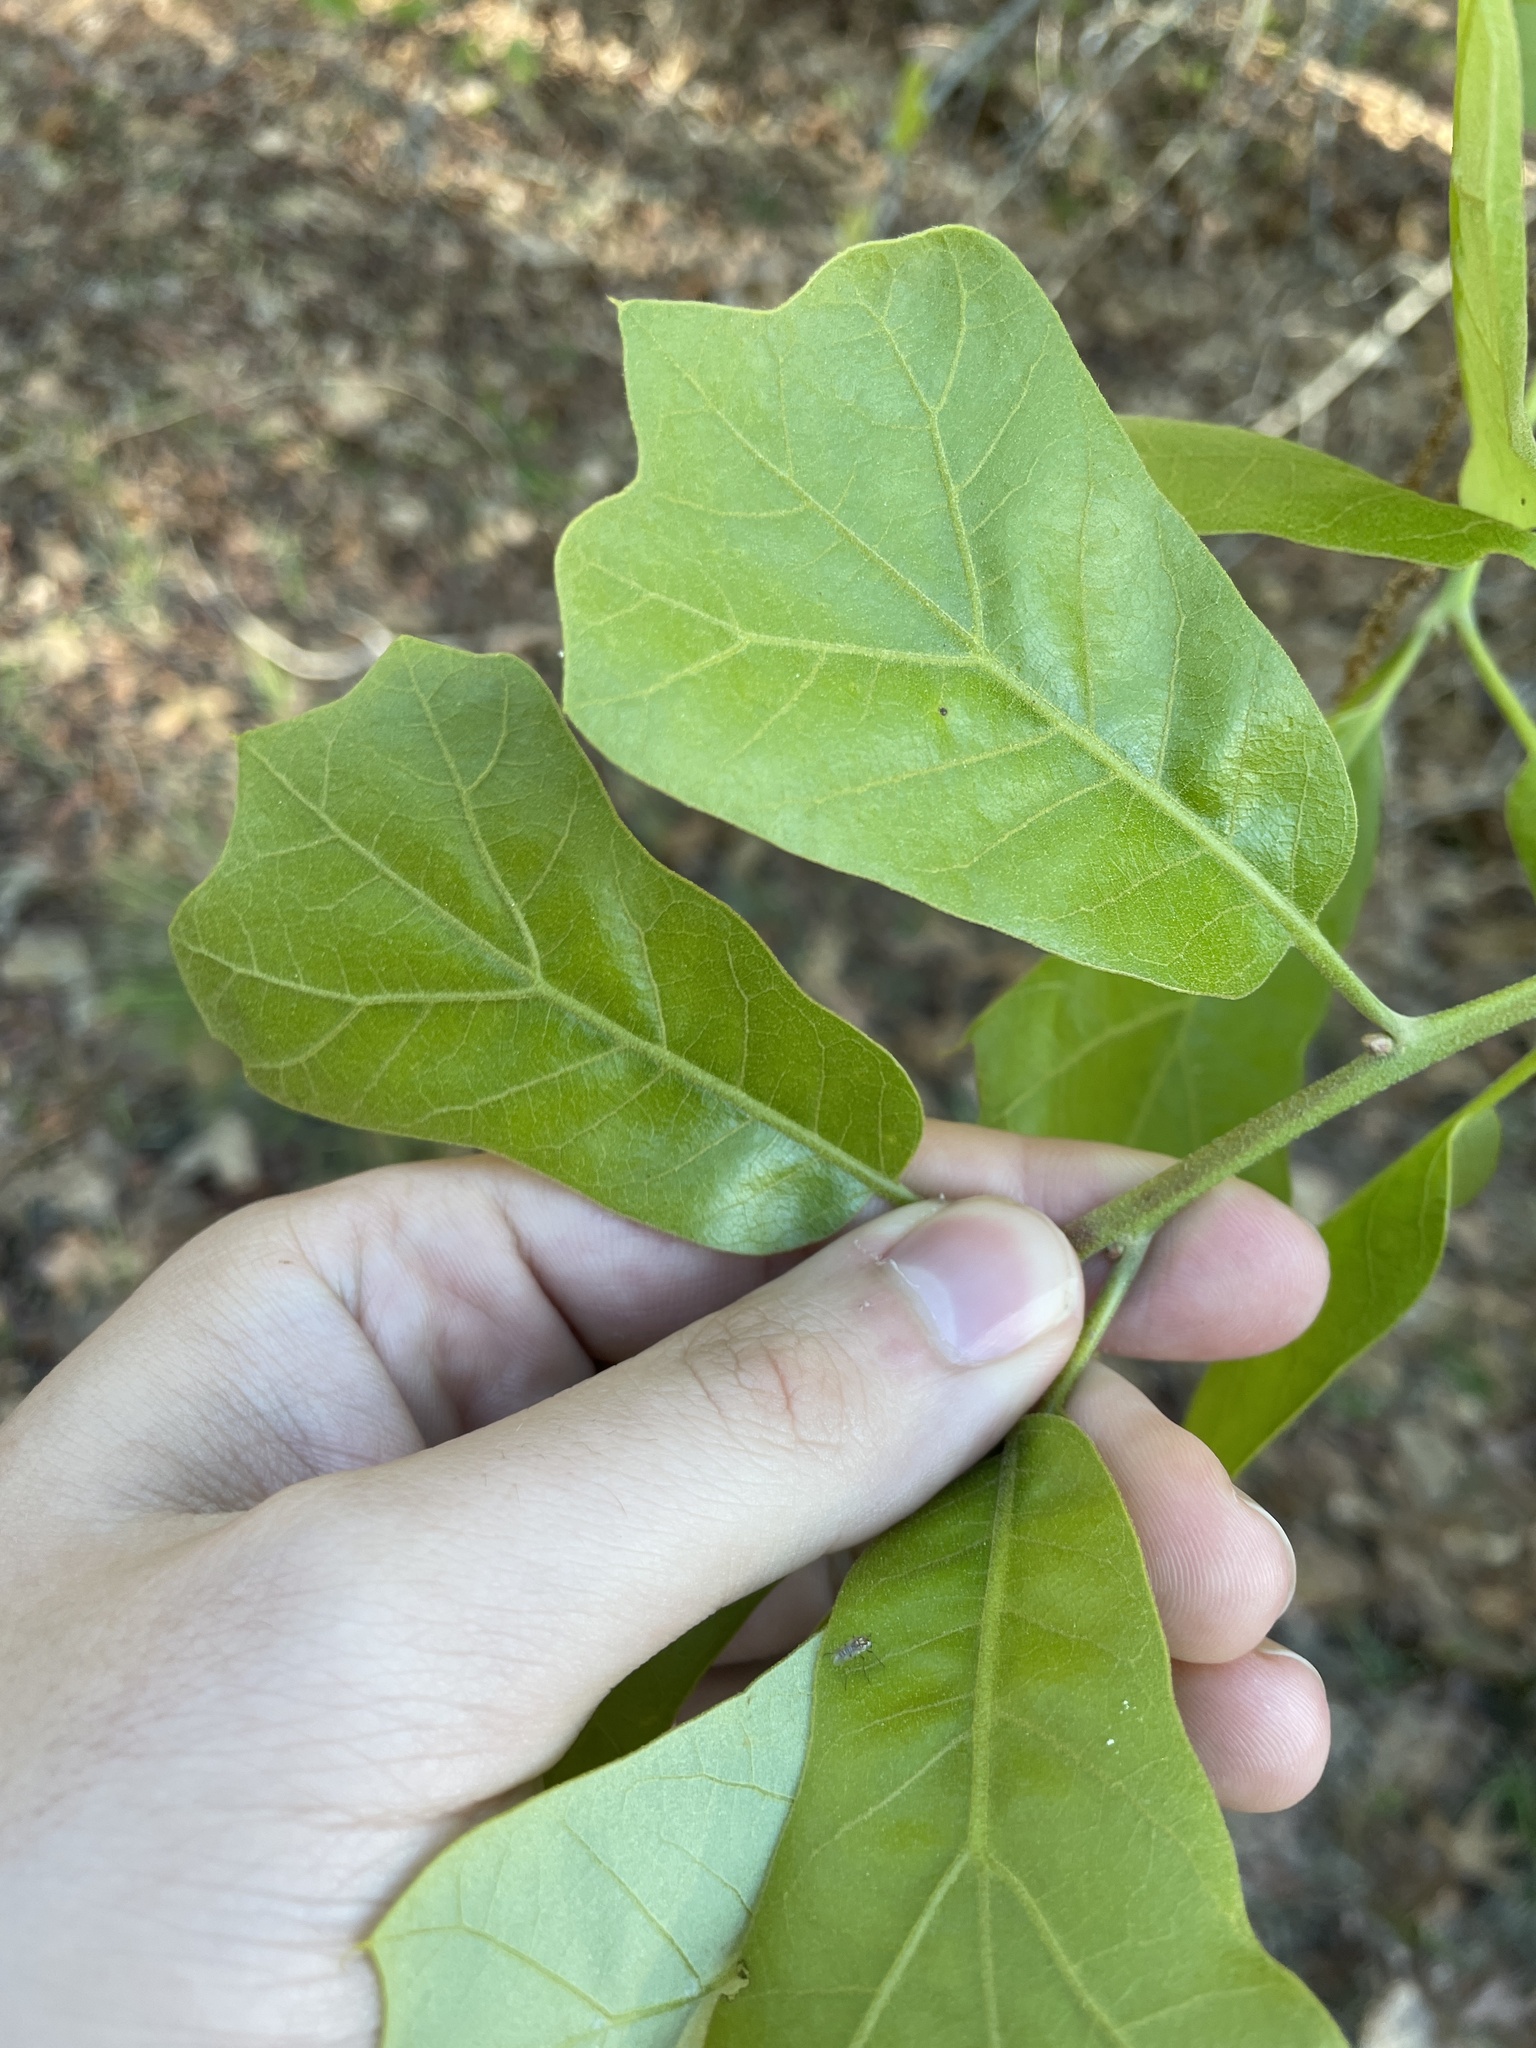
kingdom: Plantae
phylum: Tracheophyta
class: Magnoliopsida
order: Fagales
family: Fagaceae
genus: Quercus
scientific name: Quercus marilandica
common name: Blackjack oak
